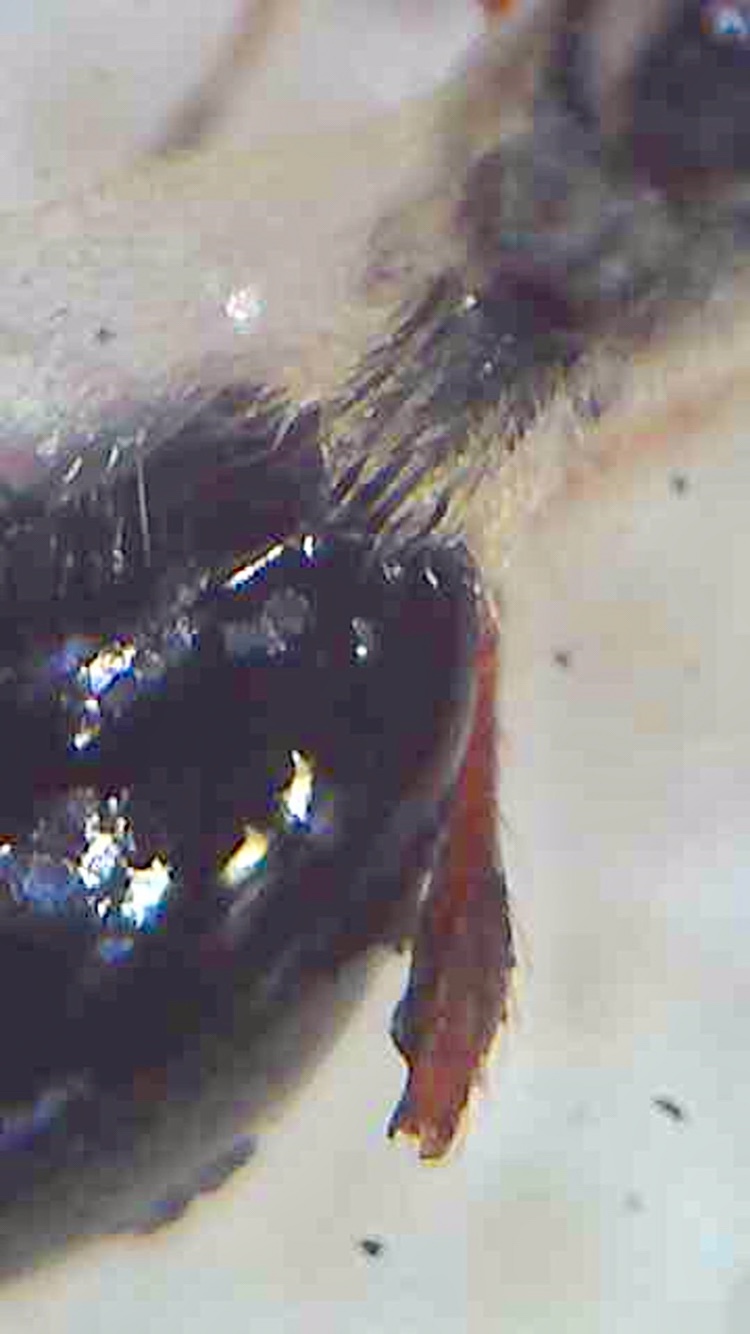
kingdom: Animalia
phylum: Arthropoda
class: Insecta
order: Hymenoptera
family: Diapriidae
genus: Diapria
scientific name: Diapria conica
